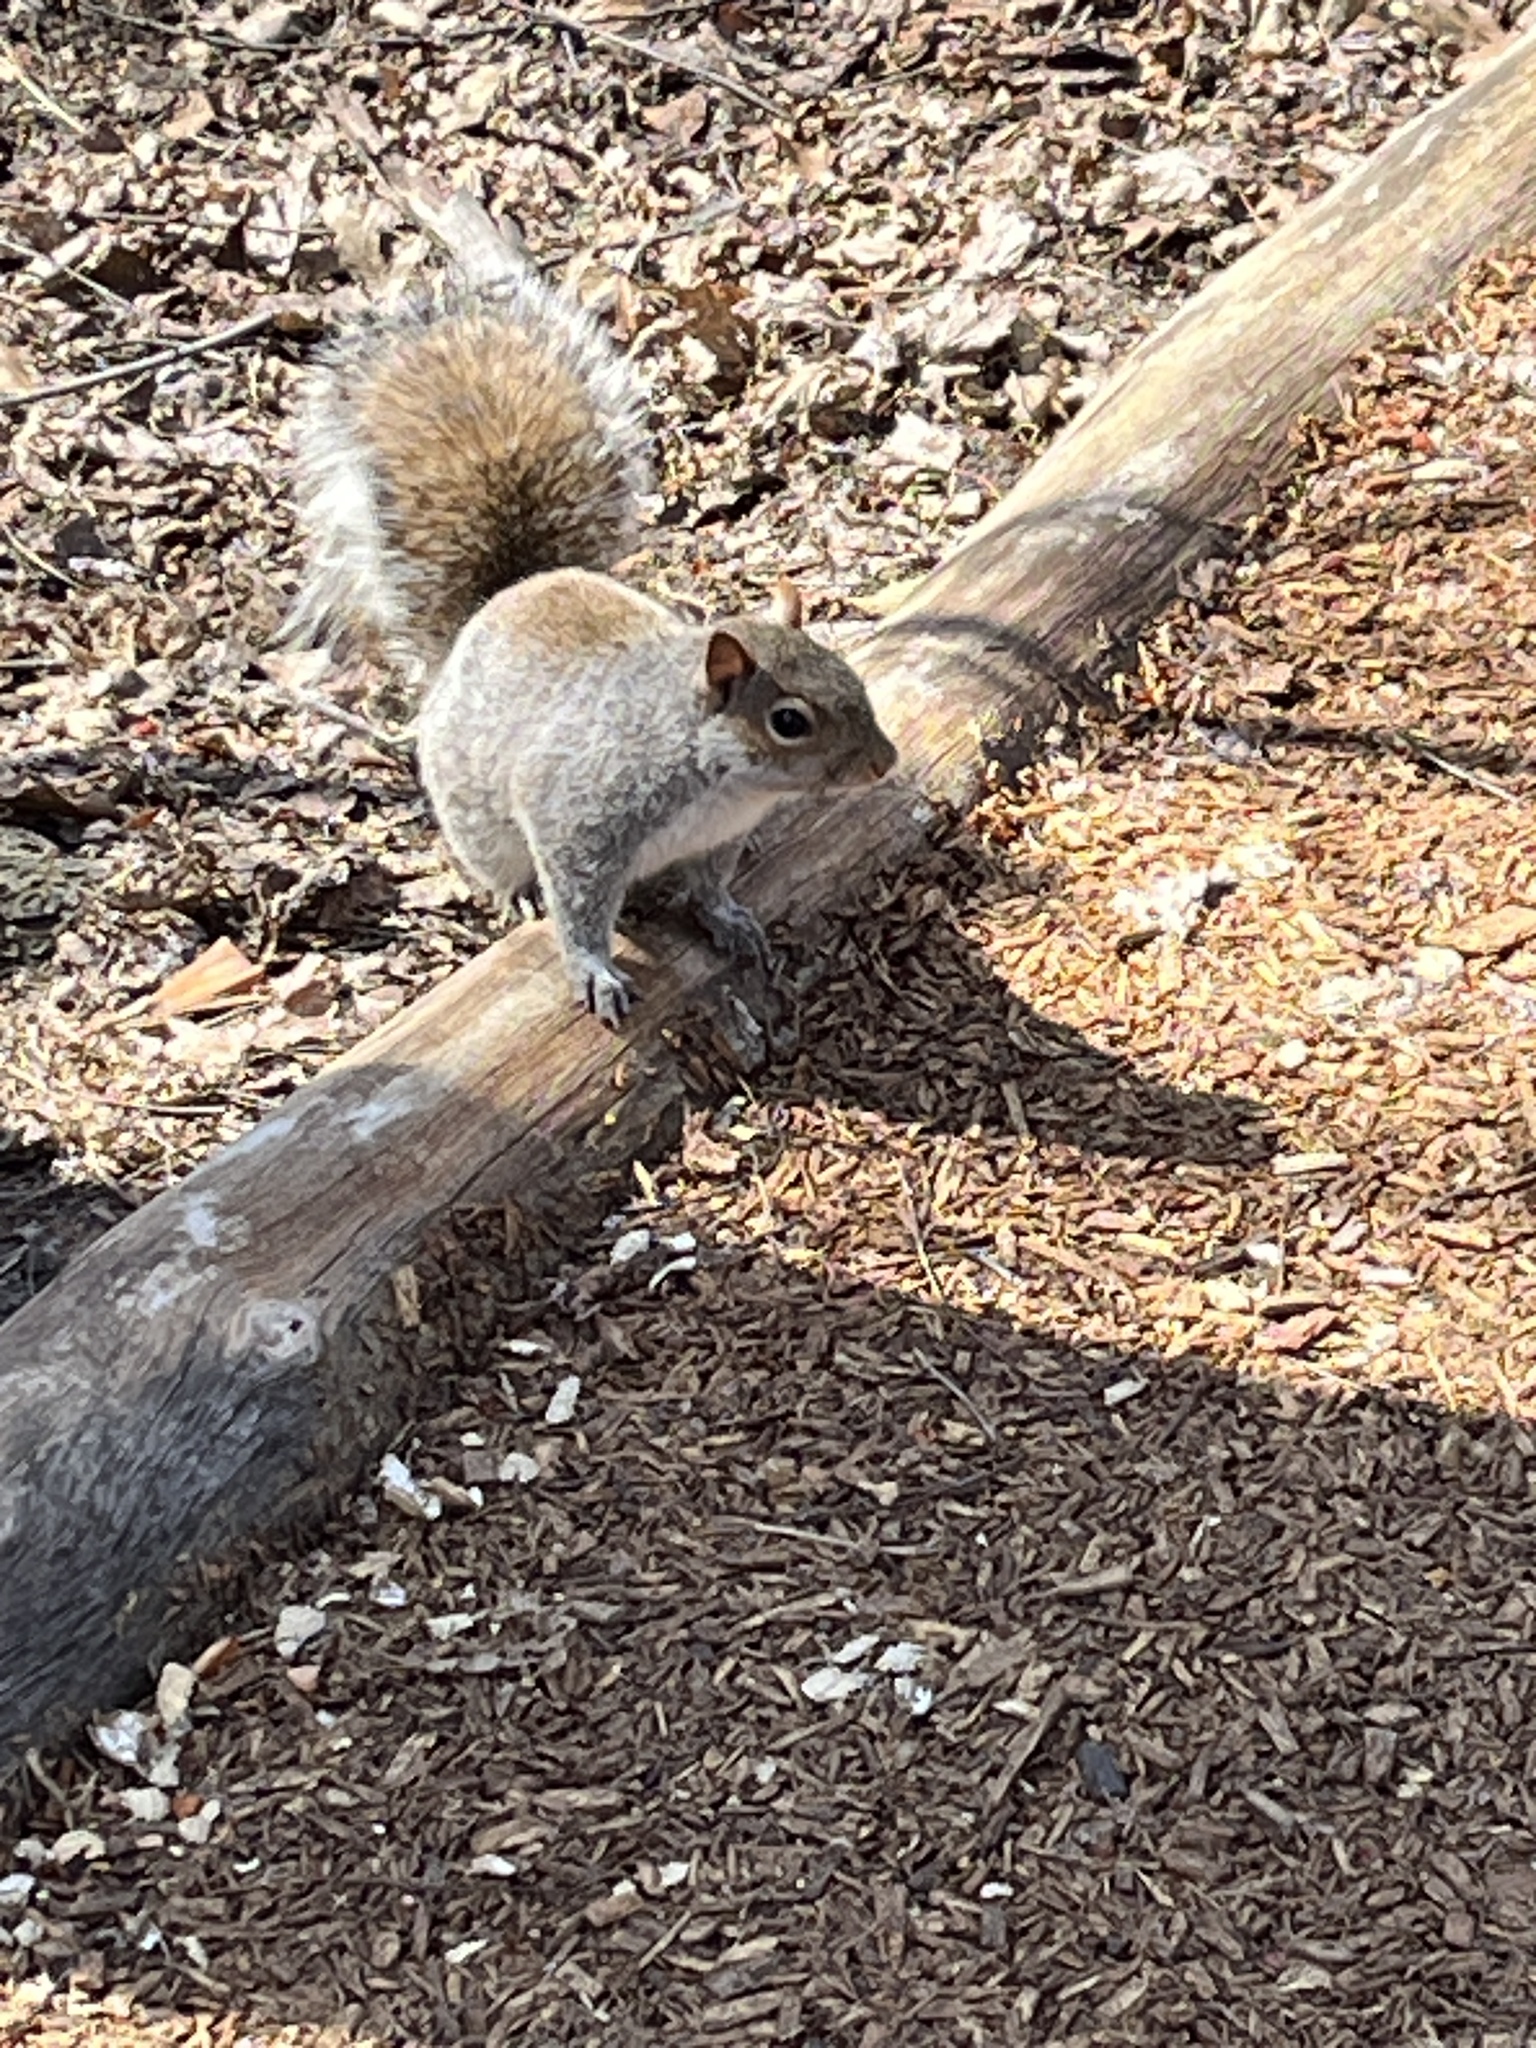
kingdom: Animalia
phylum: Chordata
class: Mammalia
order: Rodentia
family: Sciuridae
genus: Sciurus
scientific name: Sciurus carolinensis
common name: Eastern gray squirrel
